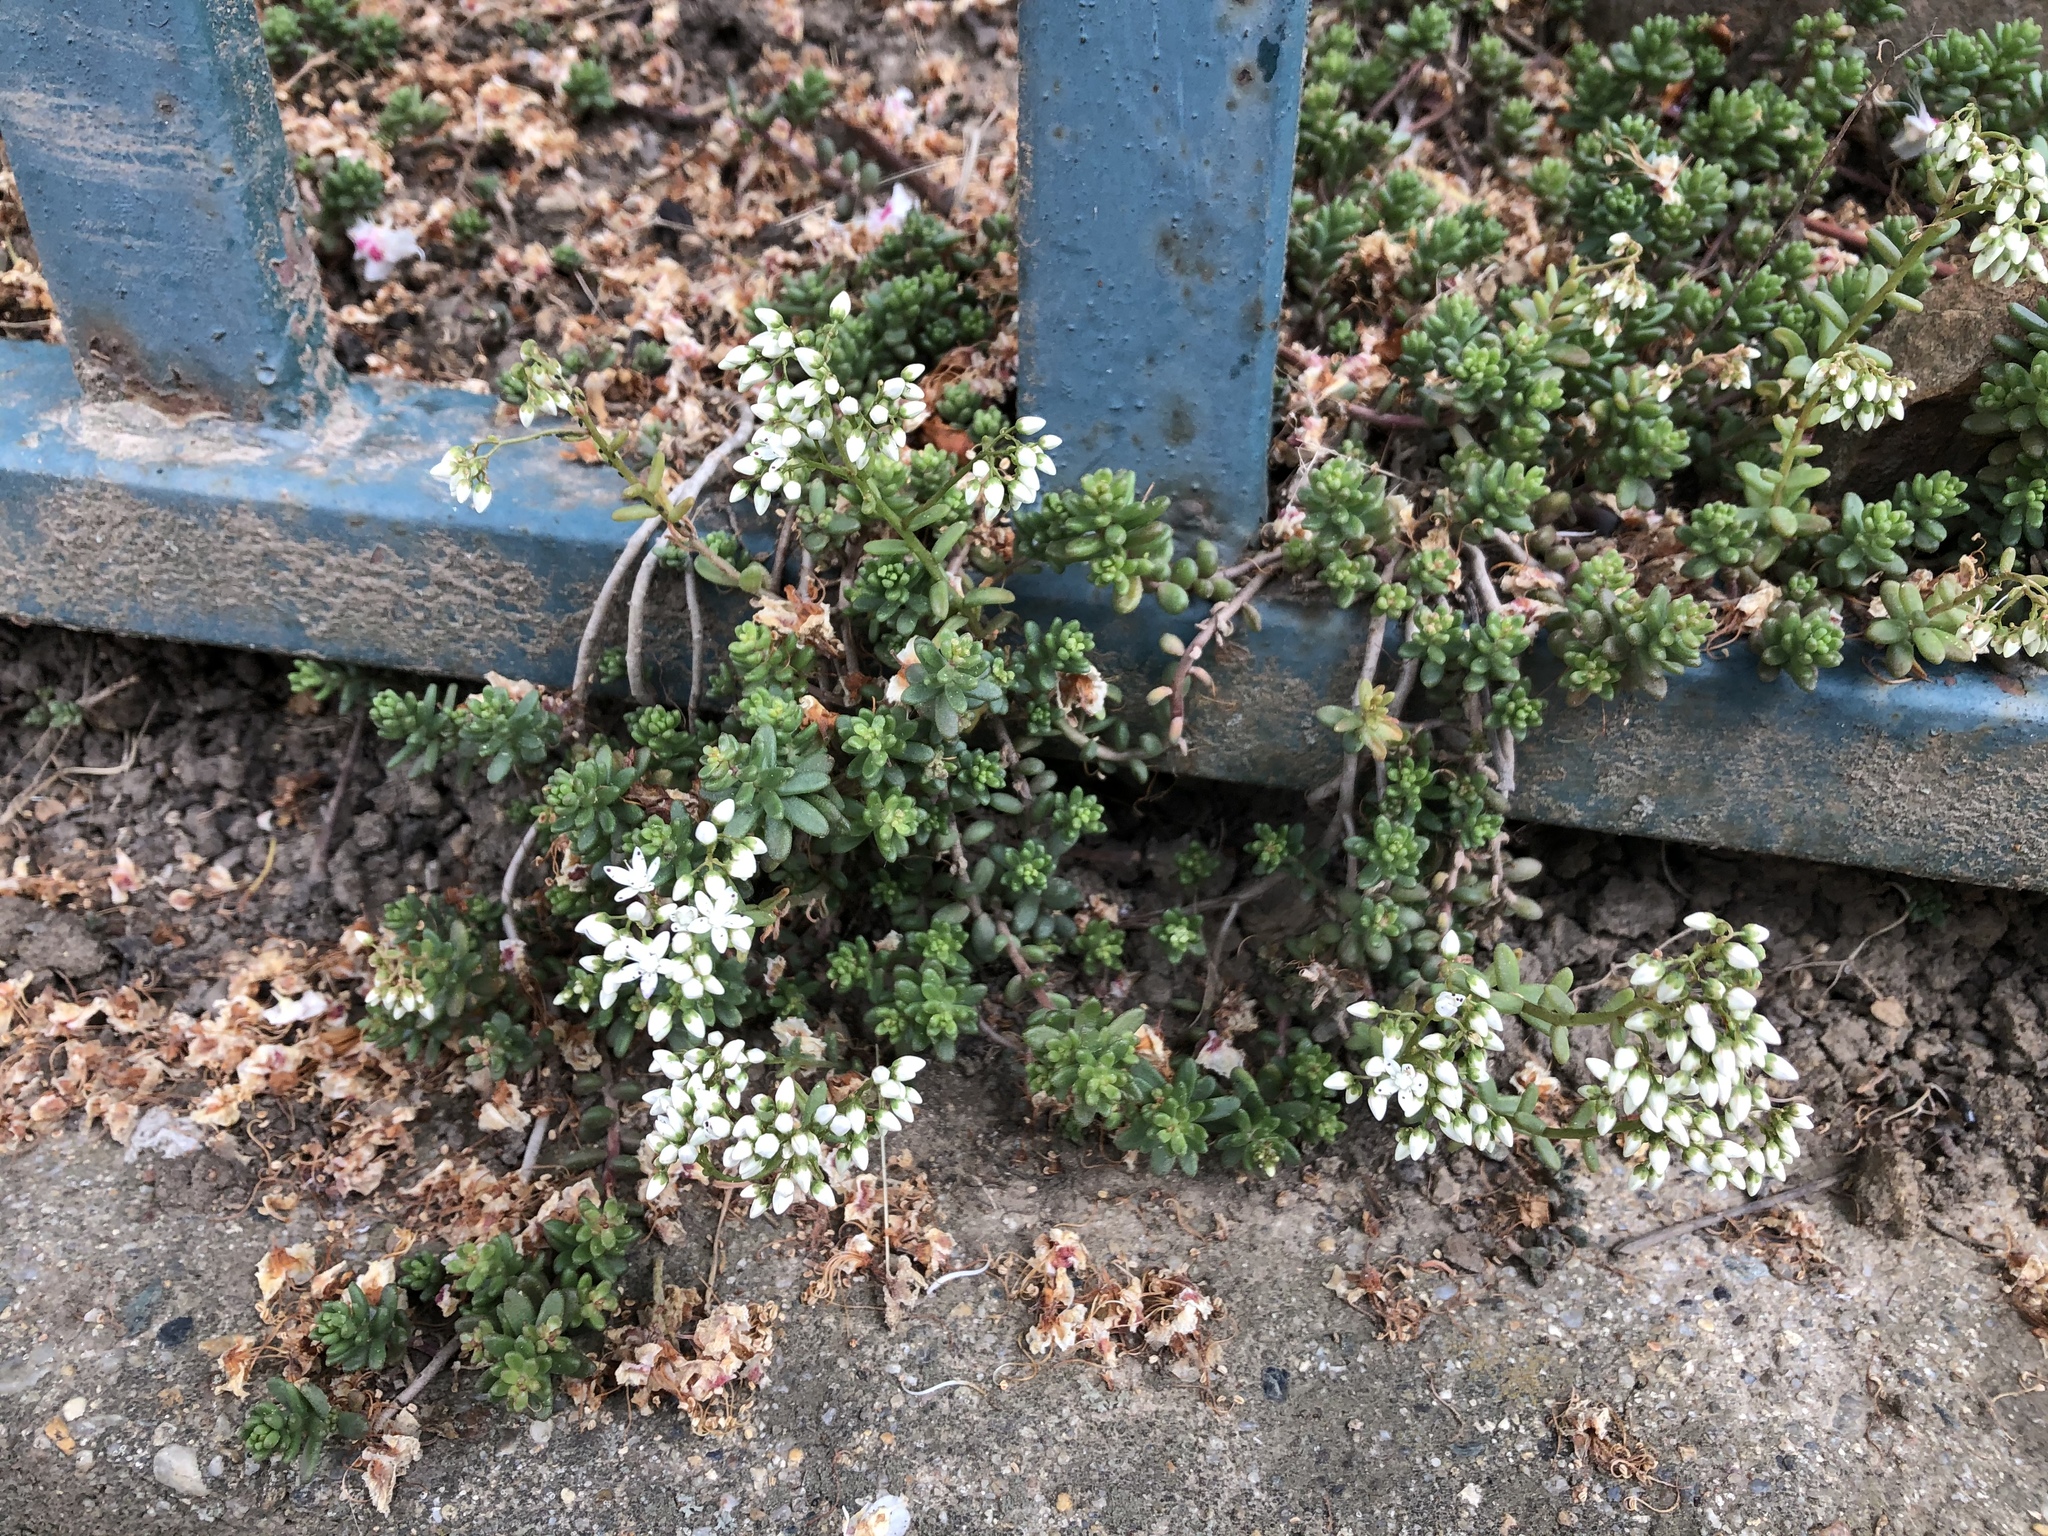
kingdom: Plantae
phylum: Tracheophyta
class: Magnoliopsida
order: Saxifragales
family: Crassulaceae
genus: Sedum
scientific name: Sedum album
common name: White stonecrop
